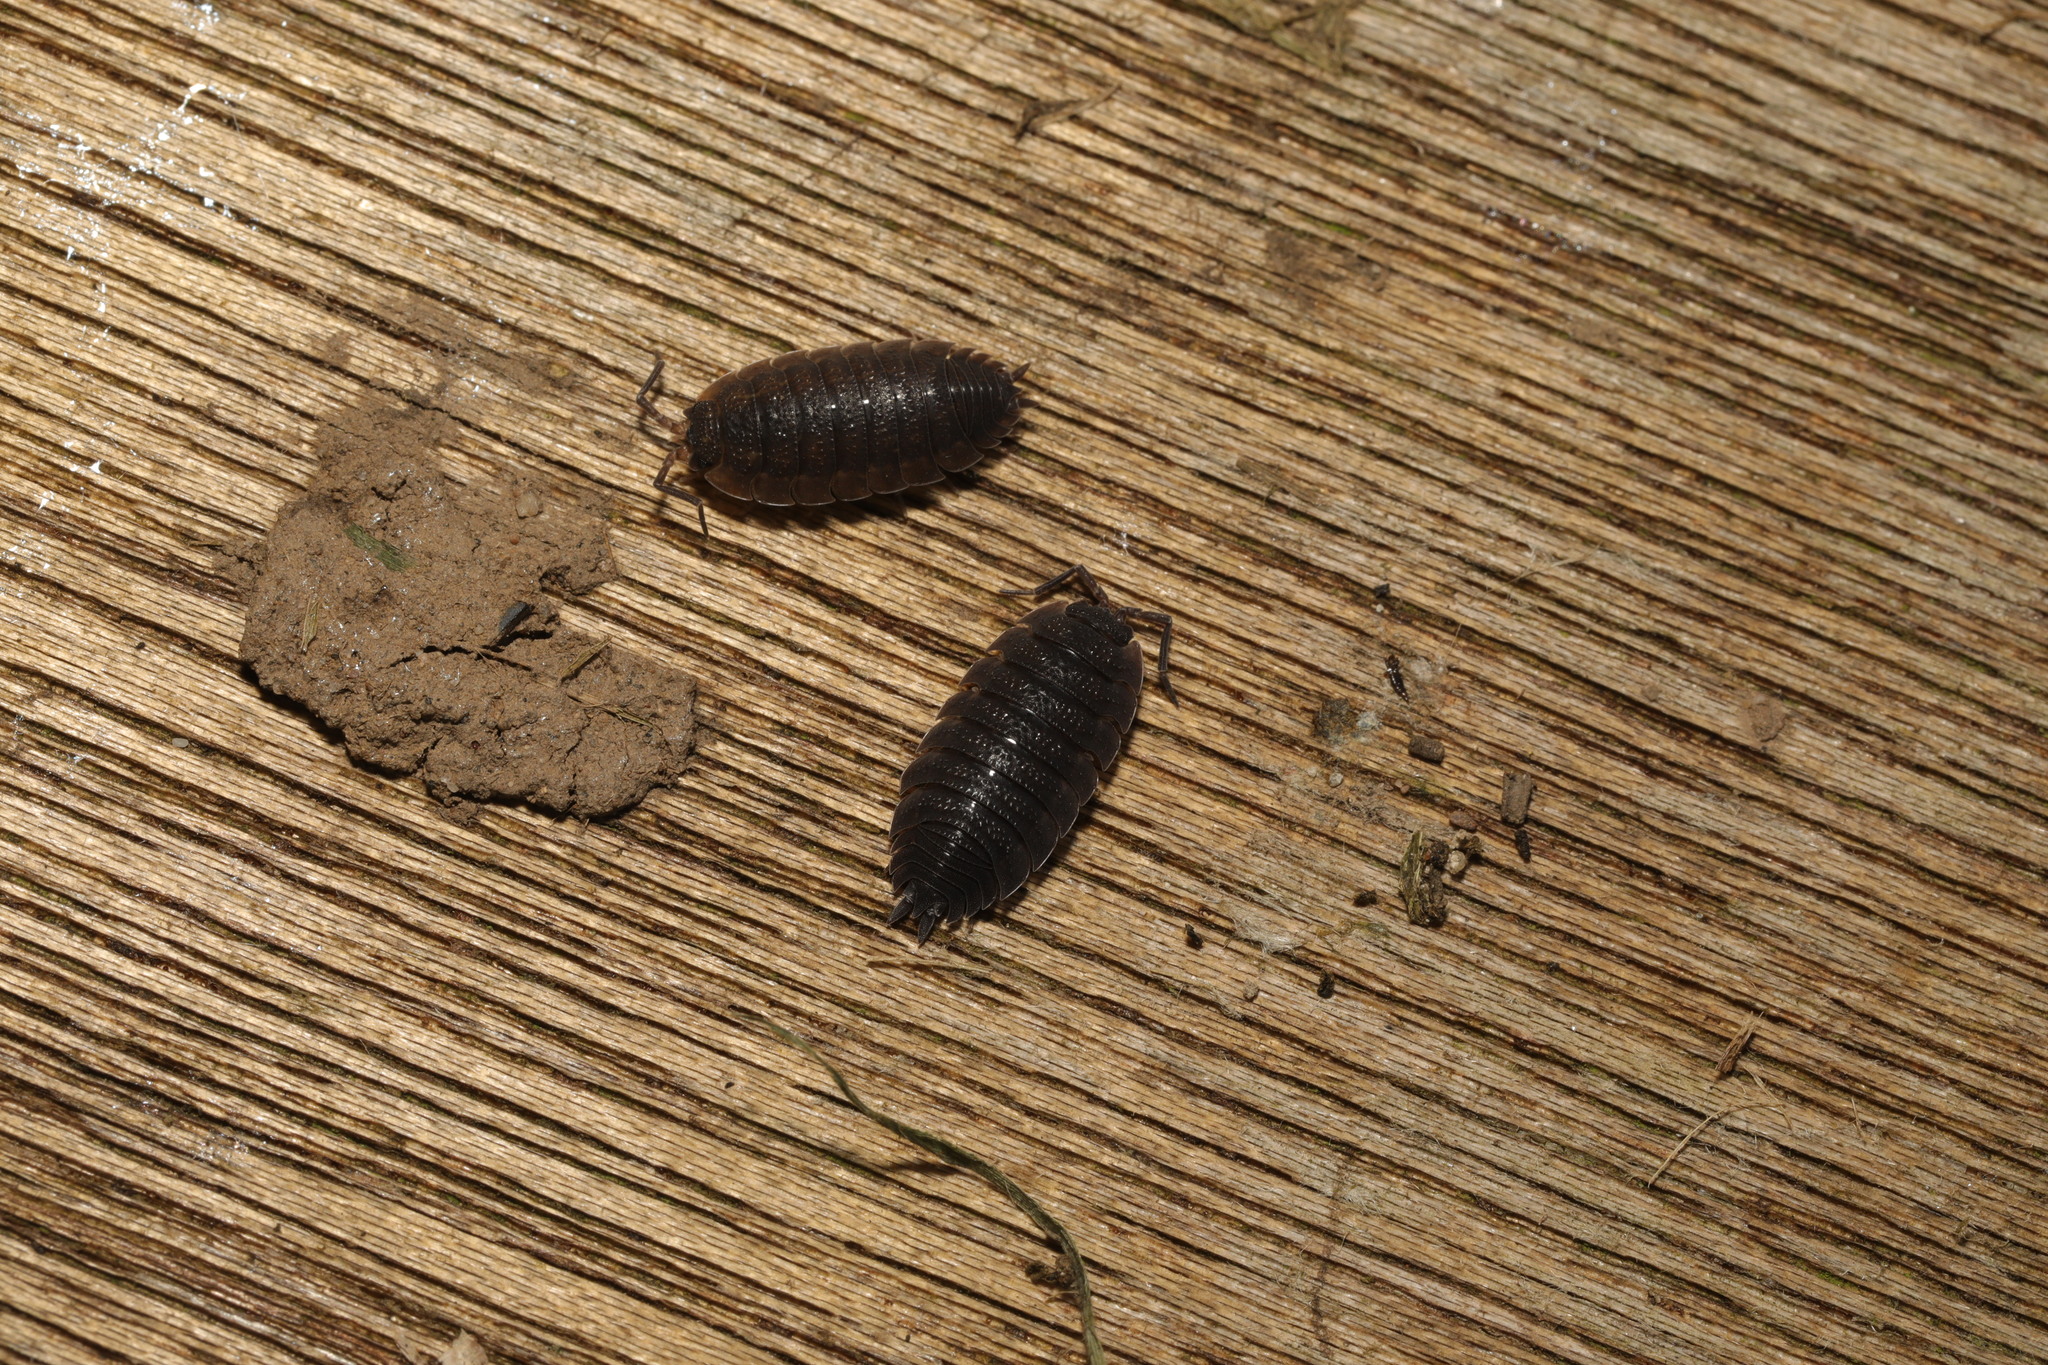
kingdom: Animalia
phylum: Arthropoda
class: Malacostraca
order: Isopoda
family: Porcellionidae
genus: Porcellio
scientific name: Porcellio scaber
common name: Common rough woodlouse
